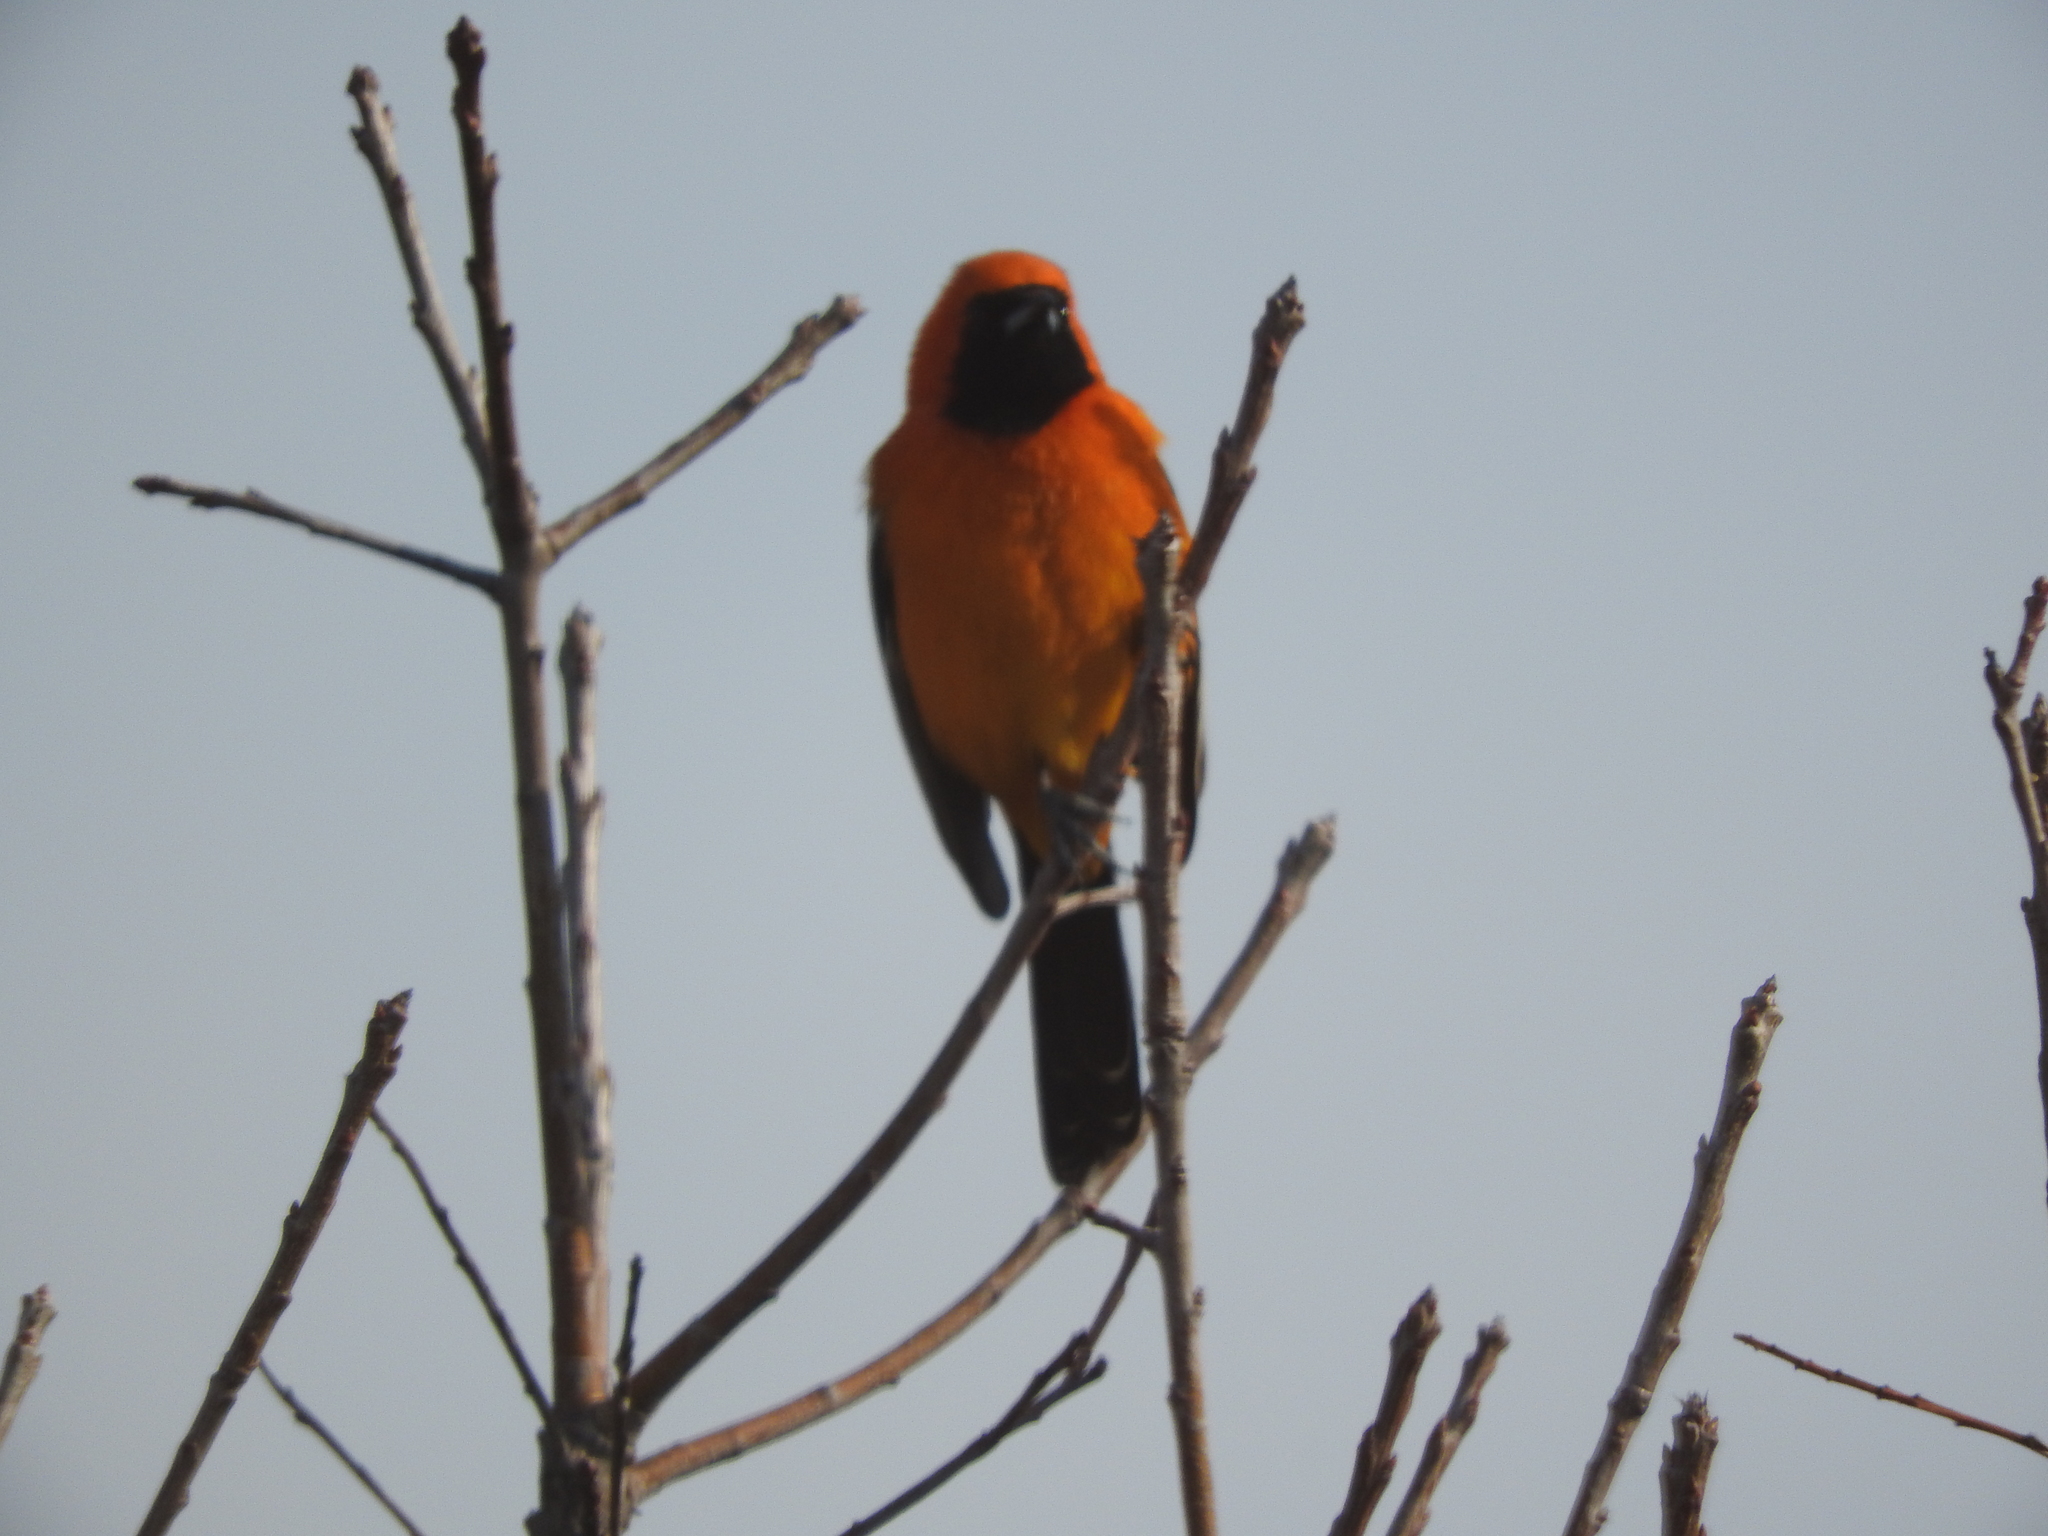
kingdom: Animalia
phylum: Chordata
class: Aves
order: Passeriformes
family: Icteridae
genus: Icterus
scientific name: Icterus cucullatus
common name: Hooded oriole
